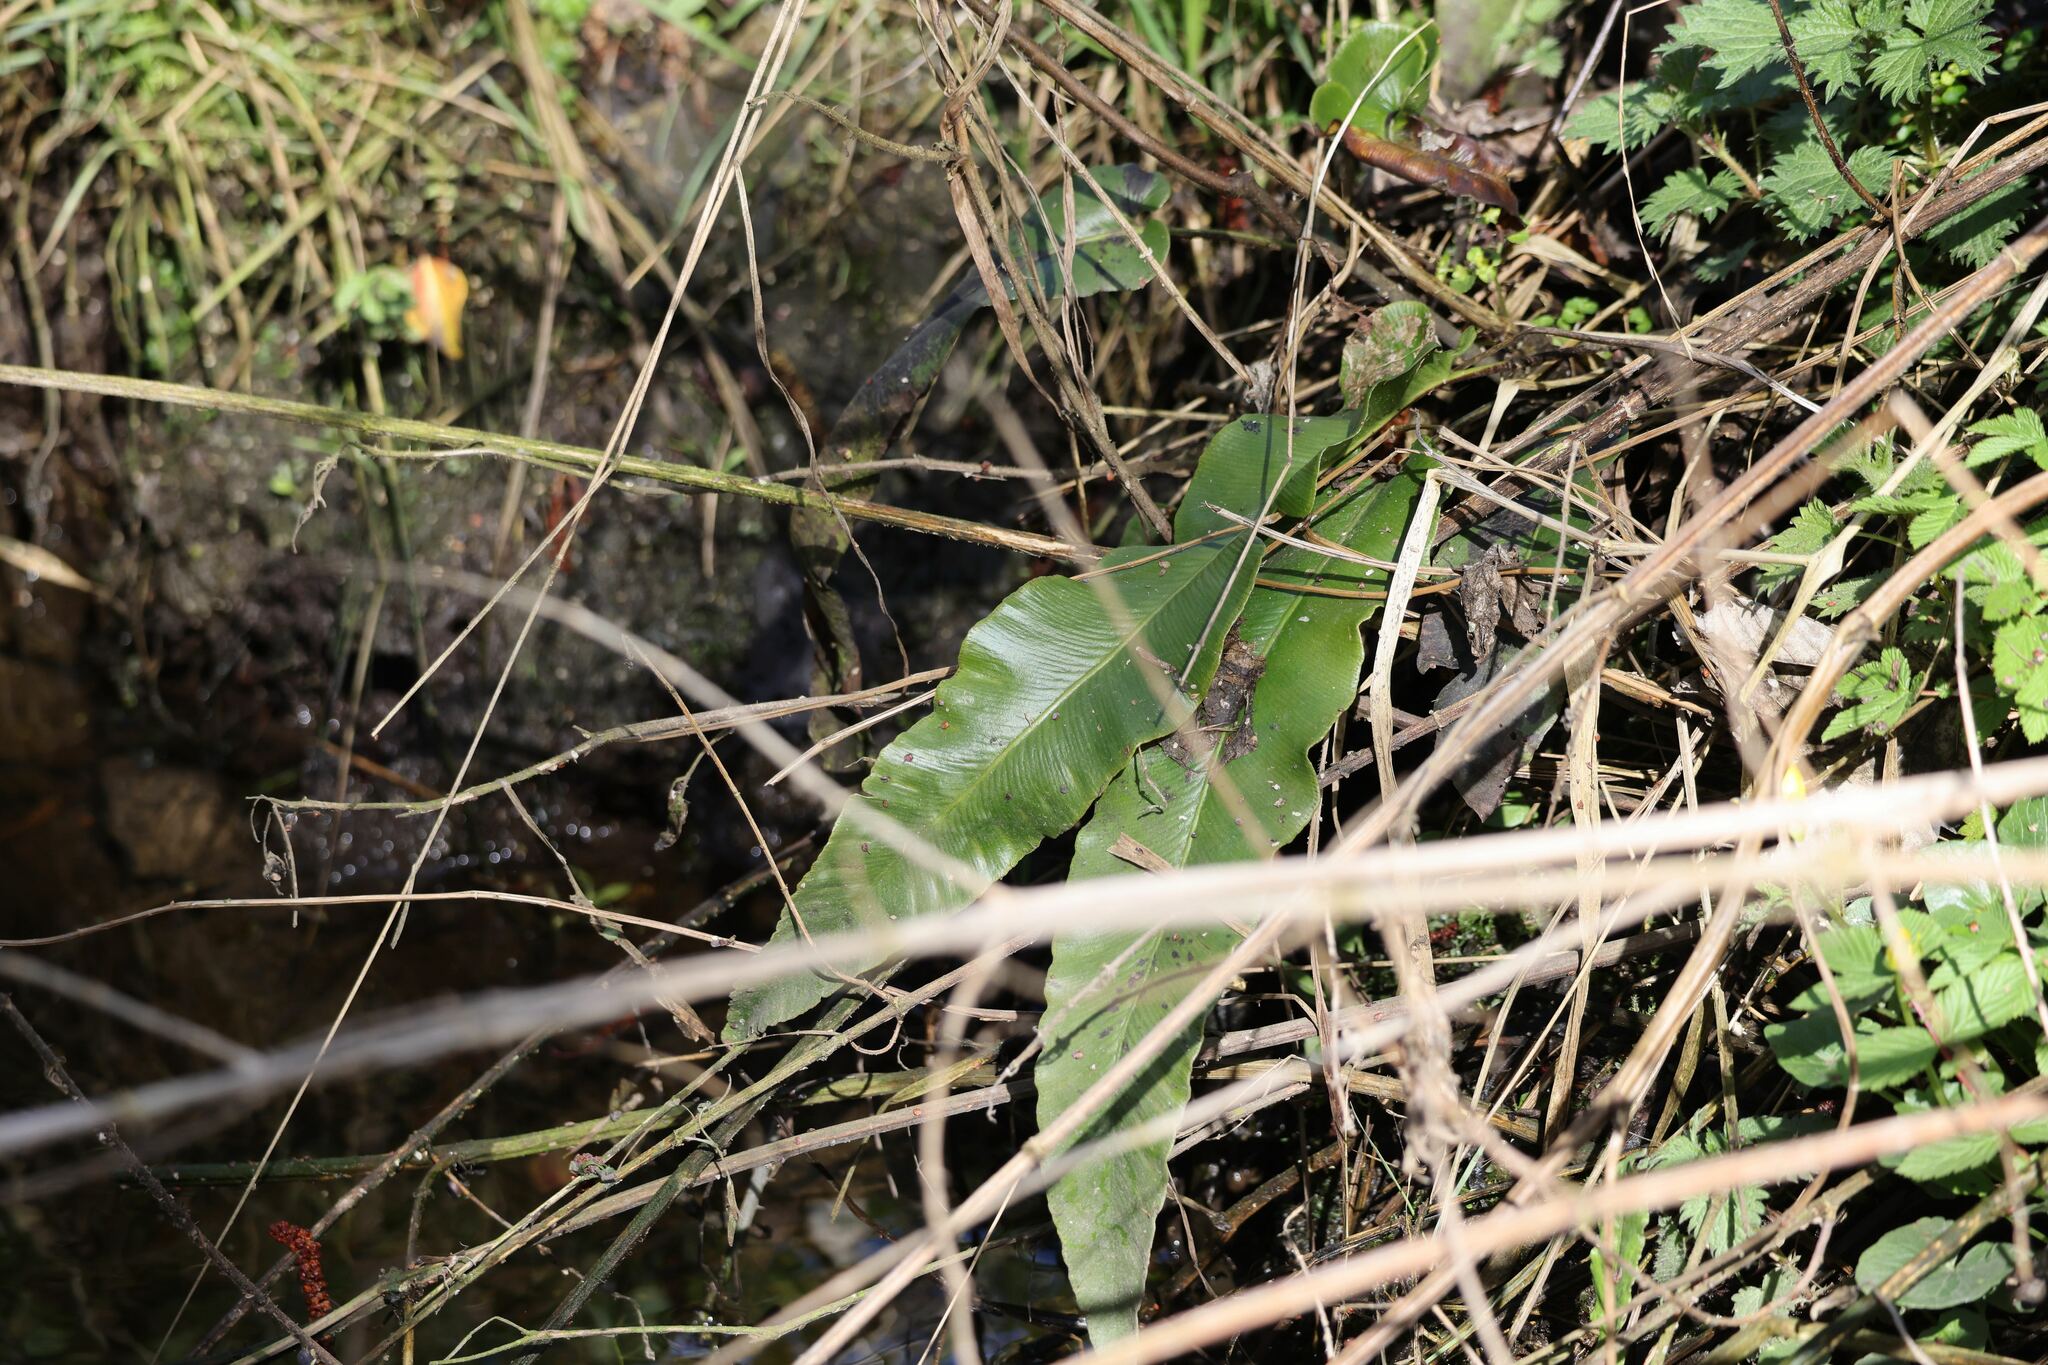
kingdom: Plantae
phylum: Tracheophyta
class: Polypodiopsida
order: Polypodiales
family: Aspleniaceae
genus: Asplenium
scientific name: Asplenium scolopendrium
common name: Hart's-tongue fern
